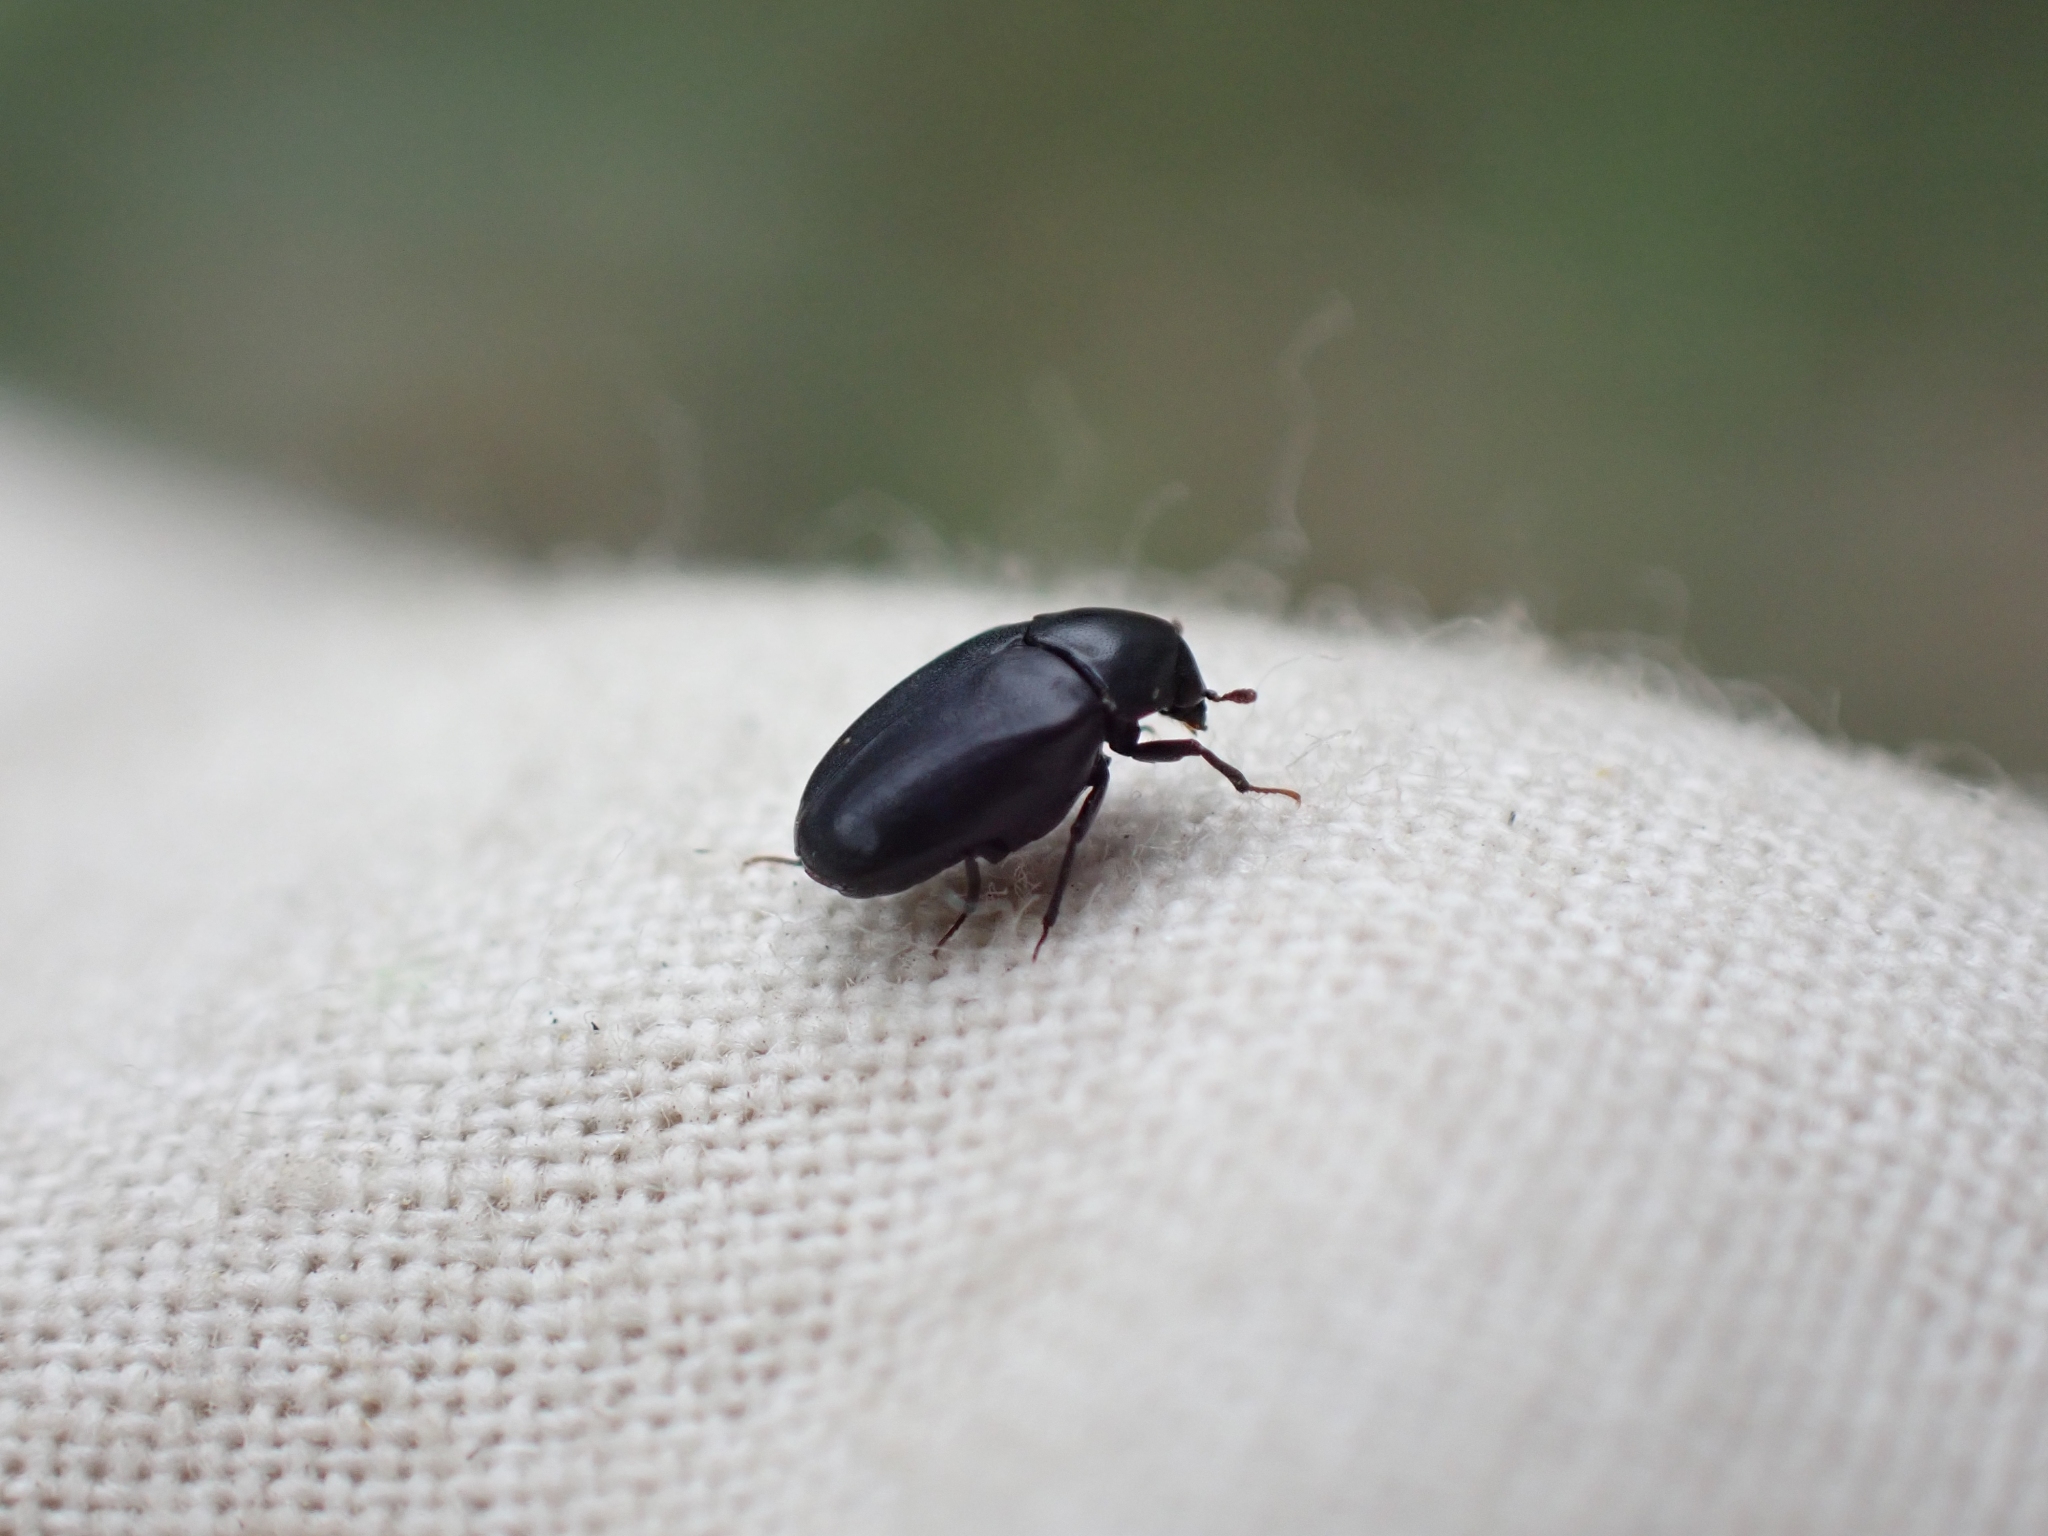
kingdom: Animalia
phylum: Arthropoda
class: Insecta
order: Coleoptera
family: Dermestidae
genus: Orphilus
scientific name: Orphilus subnitidus
